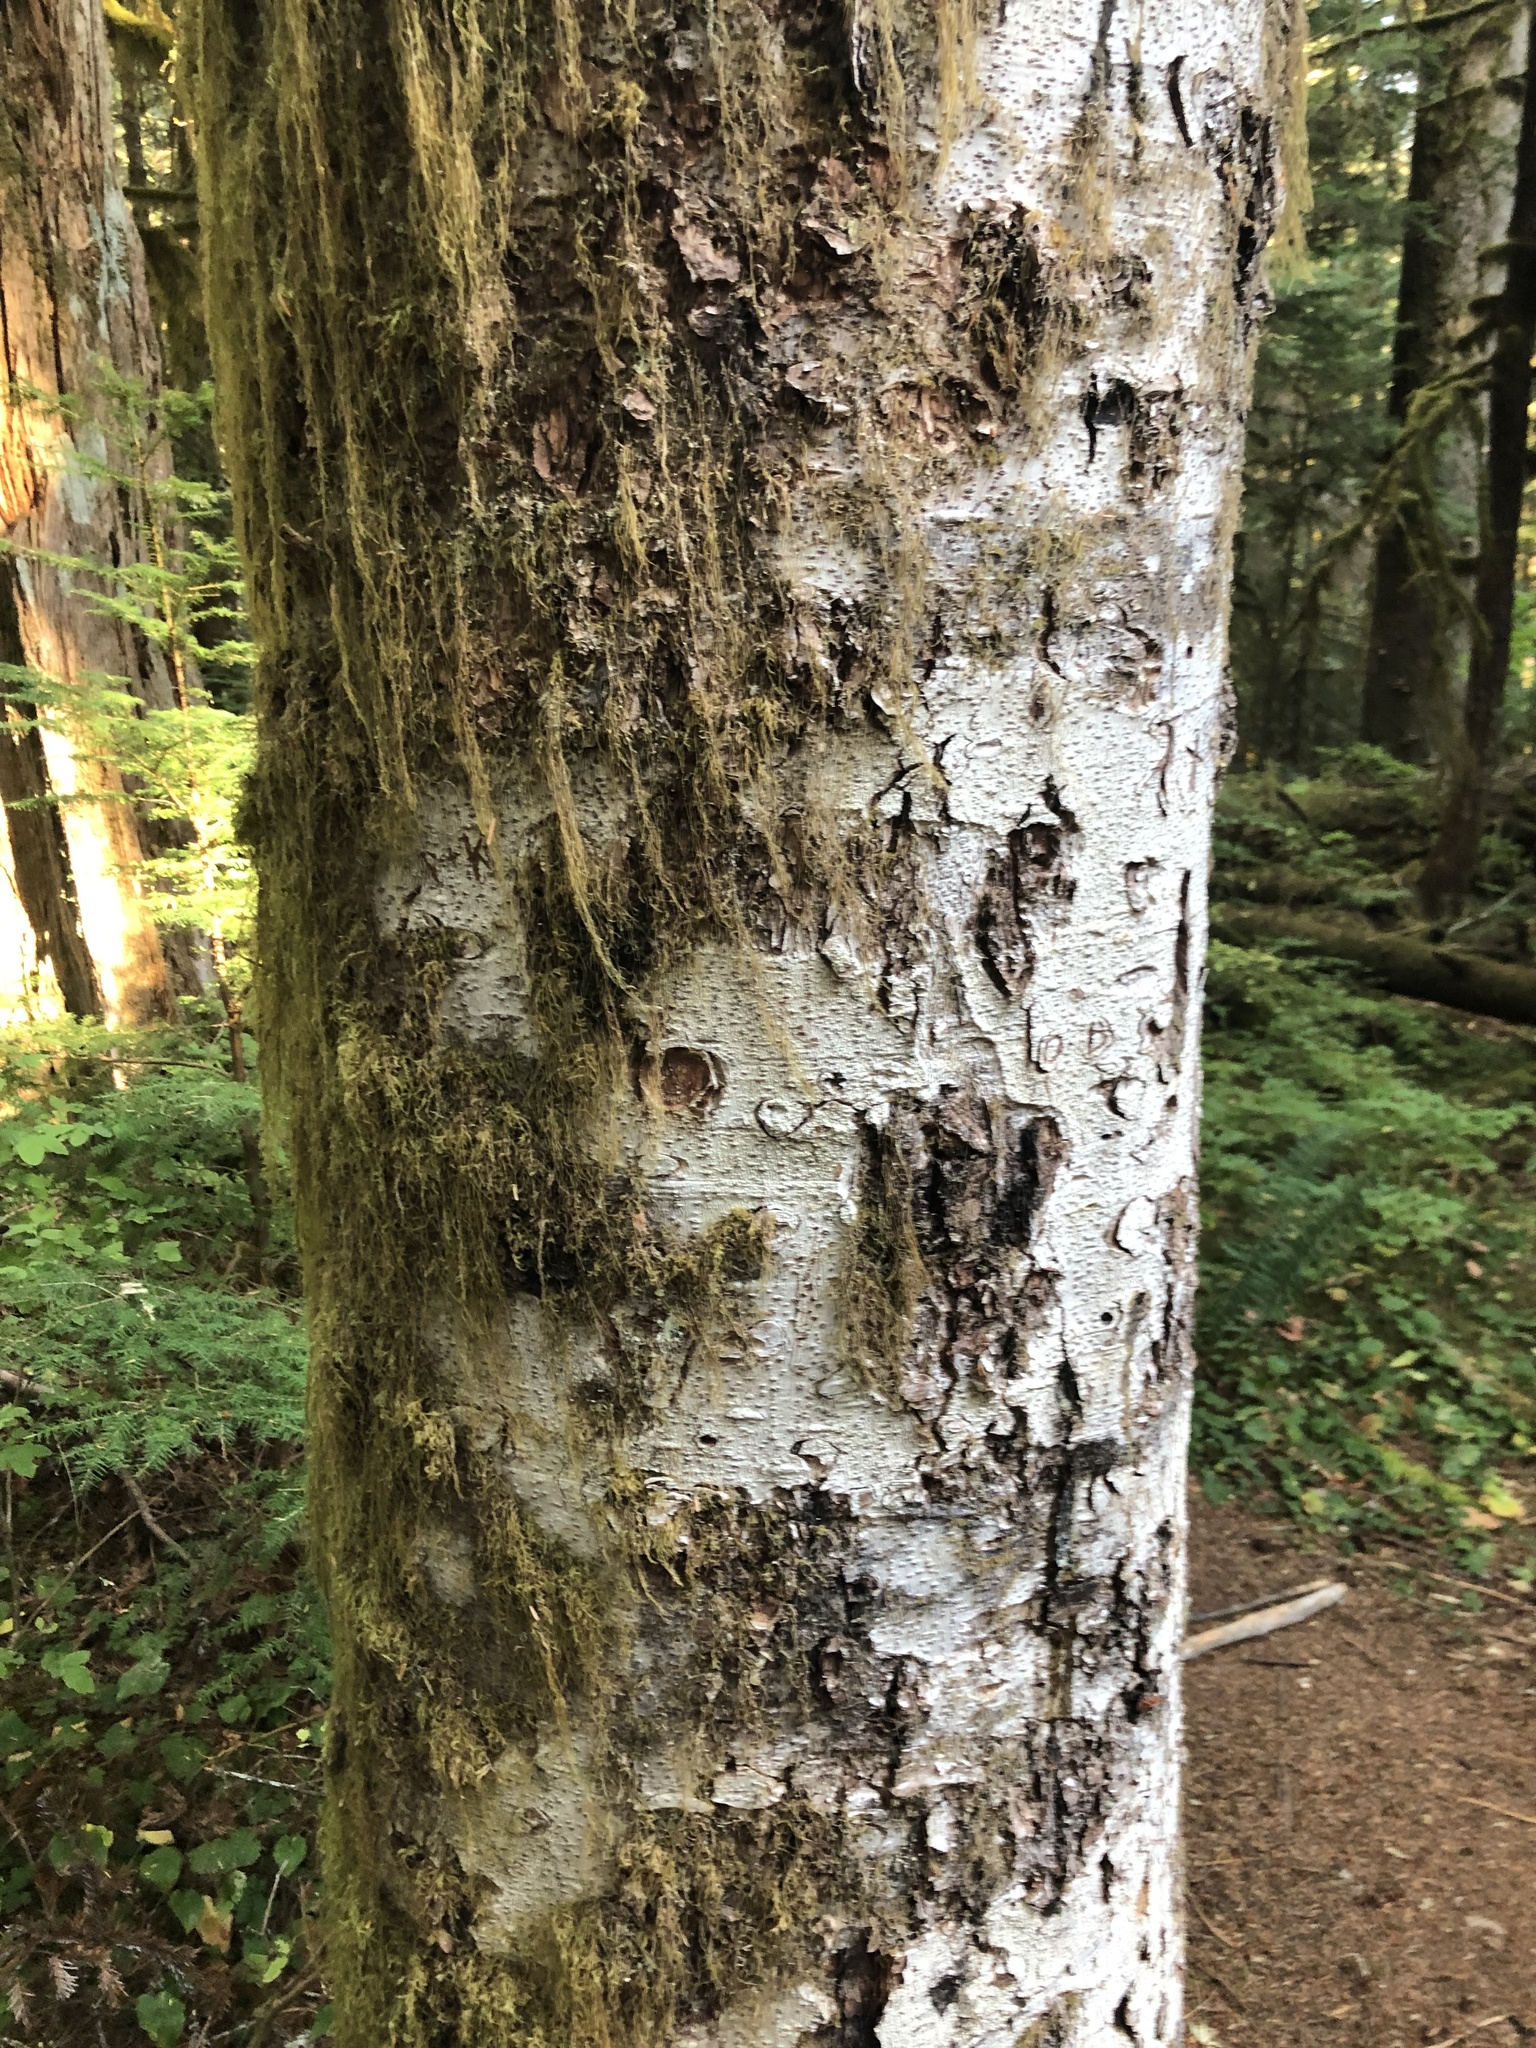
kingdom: Plantae
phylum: Tracheophyta
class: Pinopsida
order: Pinales
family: Pinaceae
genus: Abies
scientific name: Abies amabilis
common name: Pacific silver fir
